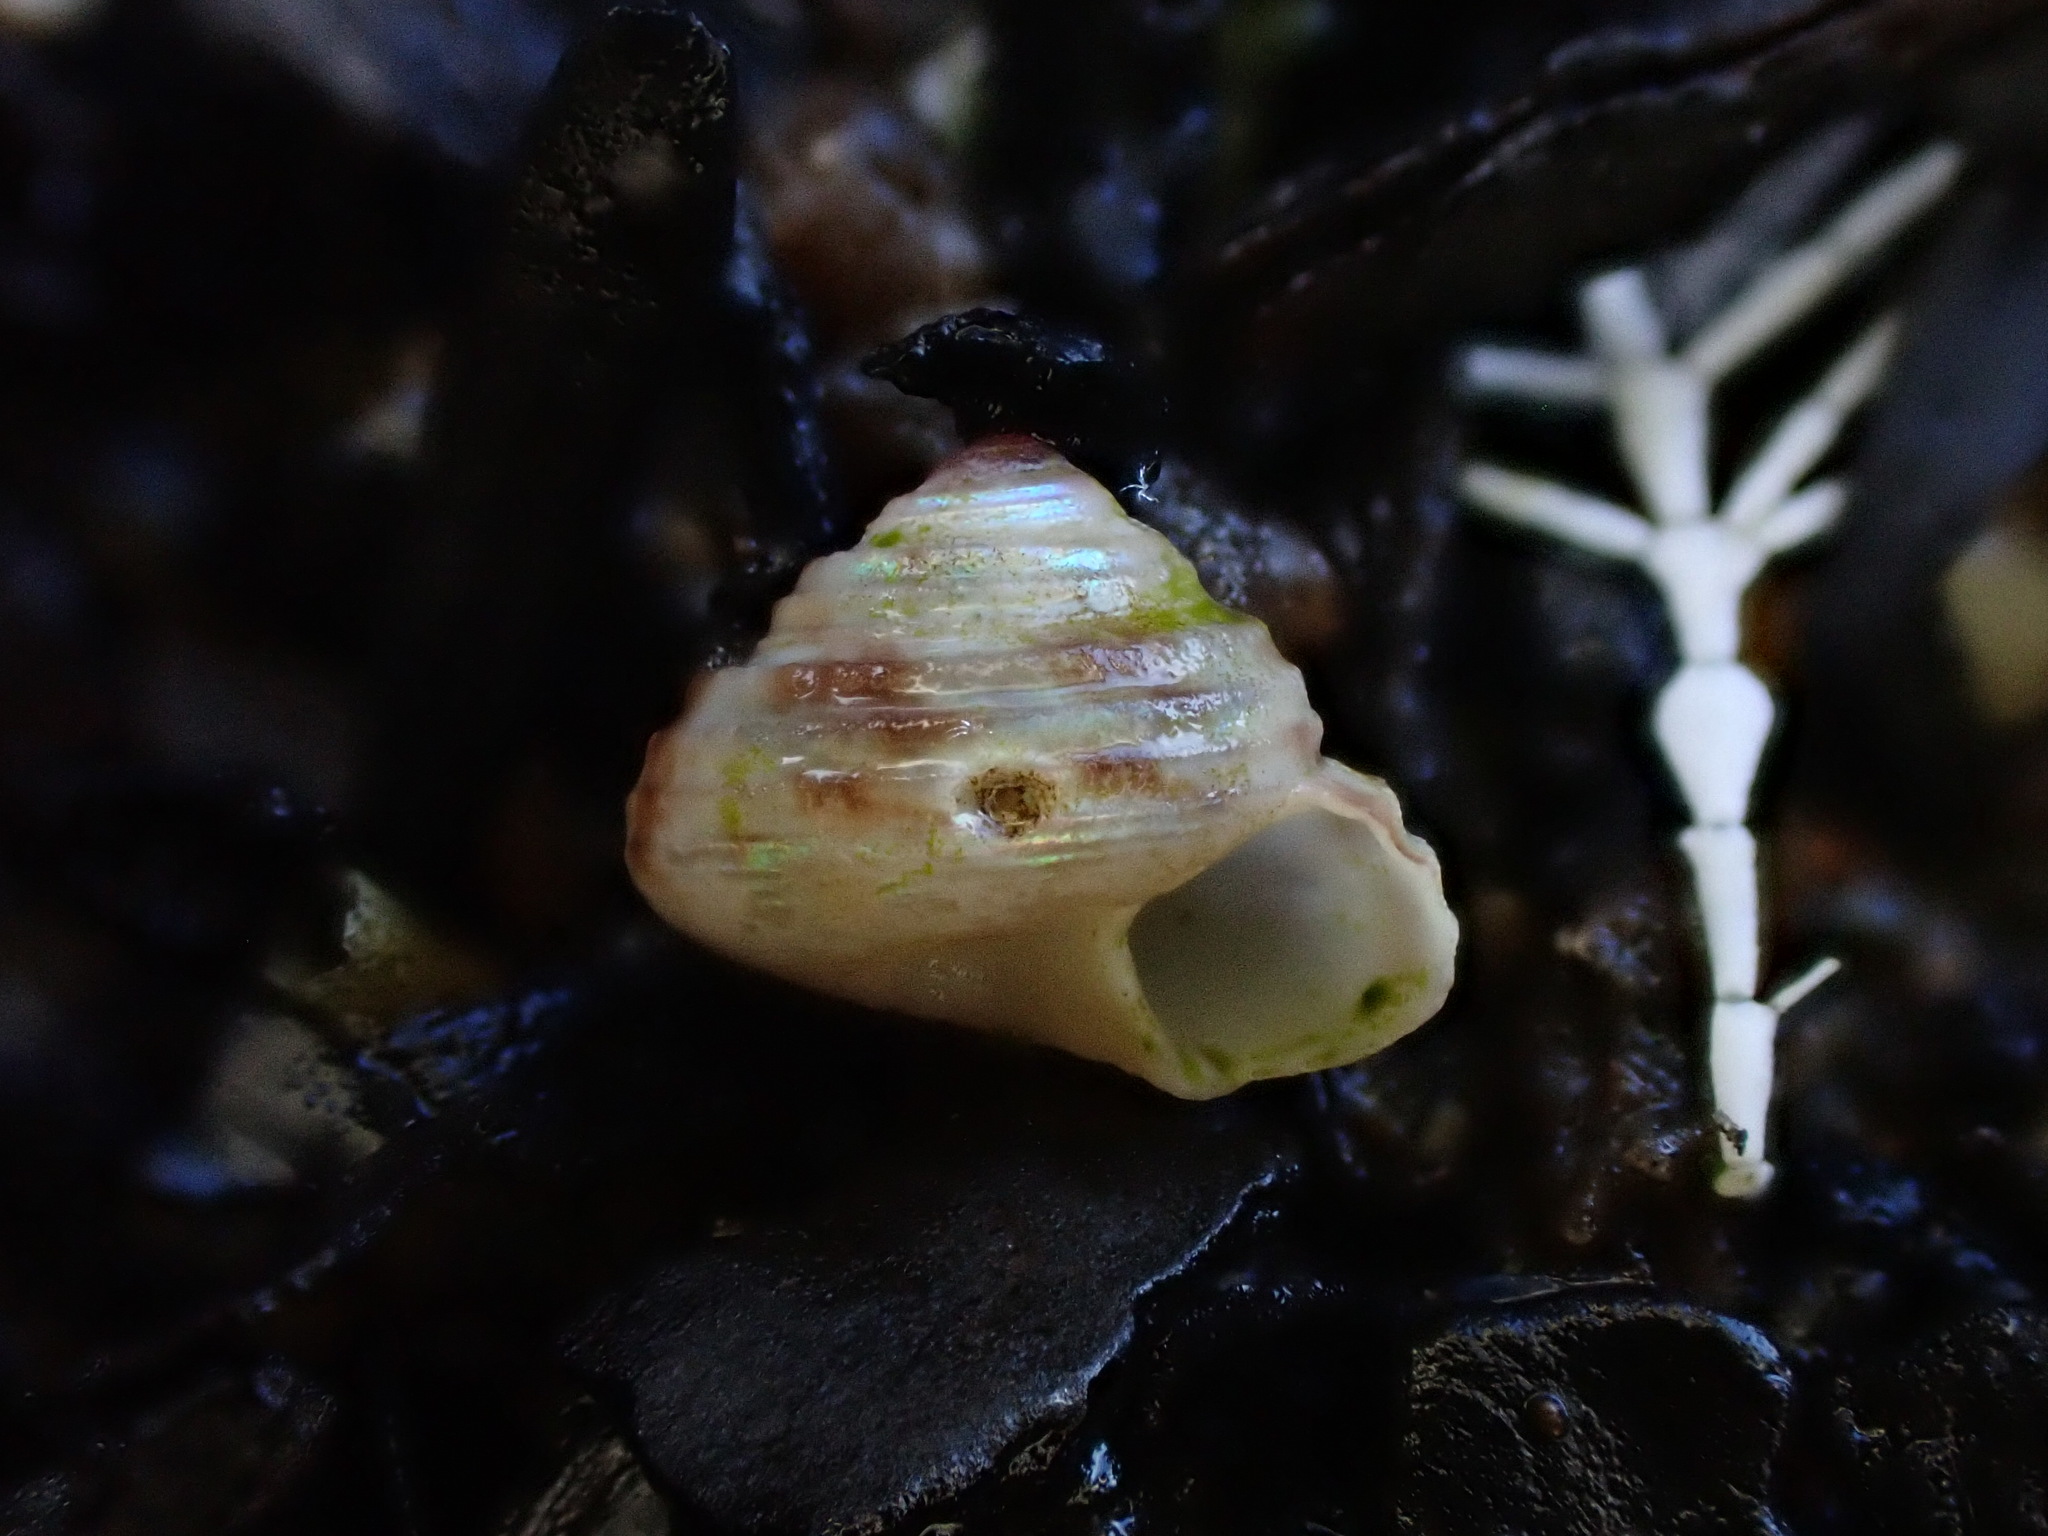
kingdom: Animalia
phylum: Mollusca
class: Gastropoda
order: Trochida
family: Trochidae
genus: Antisolarium
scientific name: Antisolarium egenum
